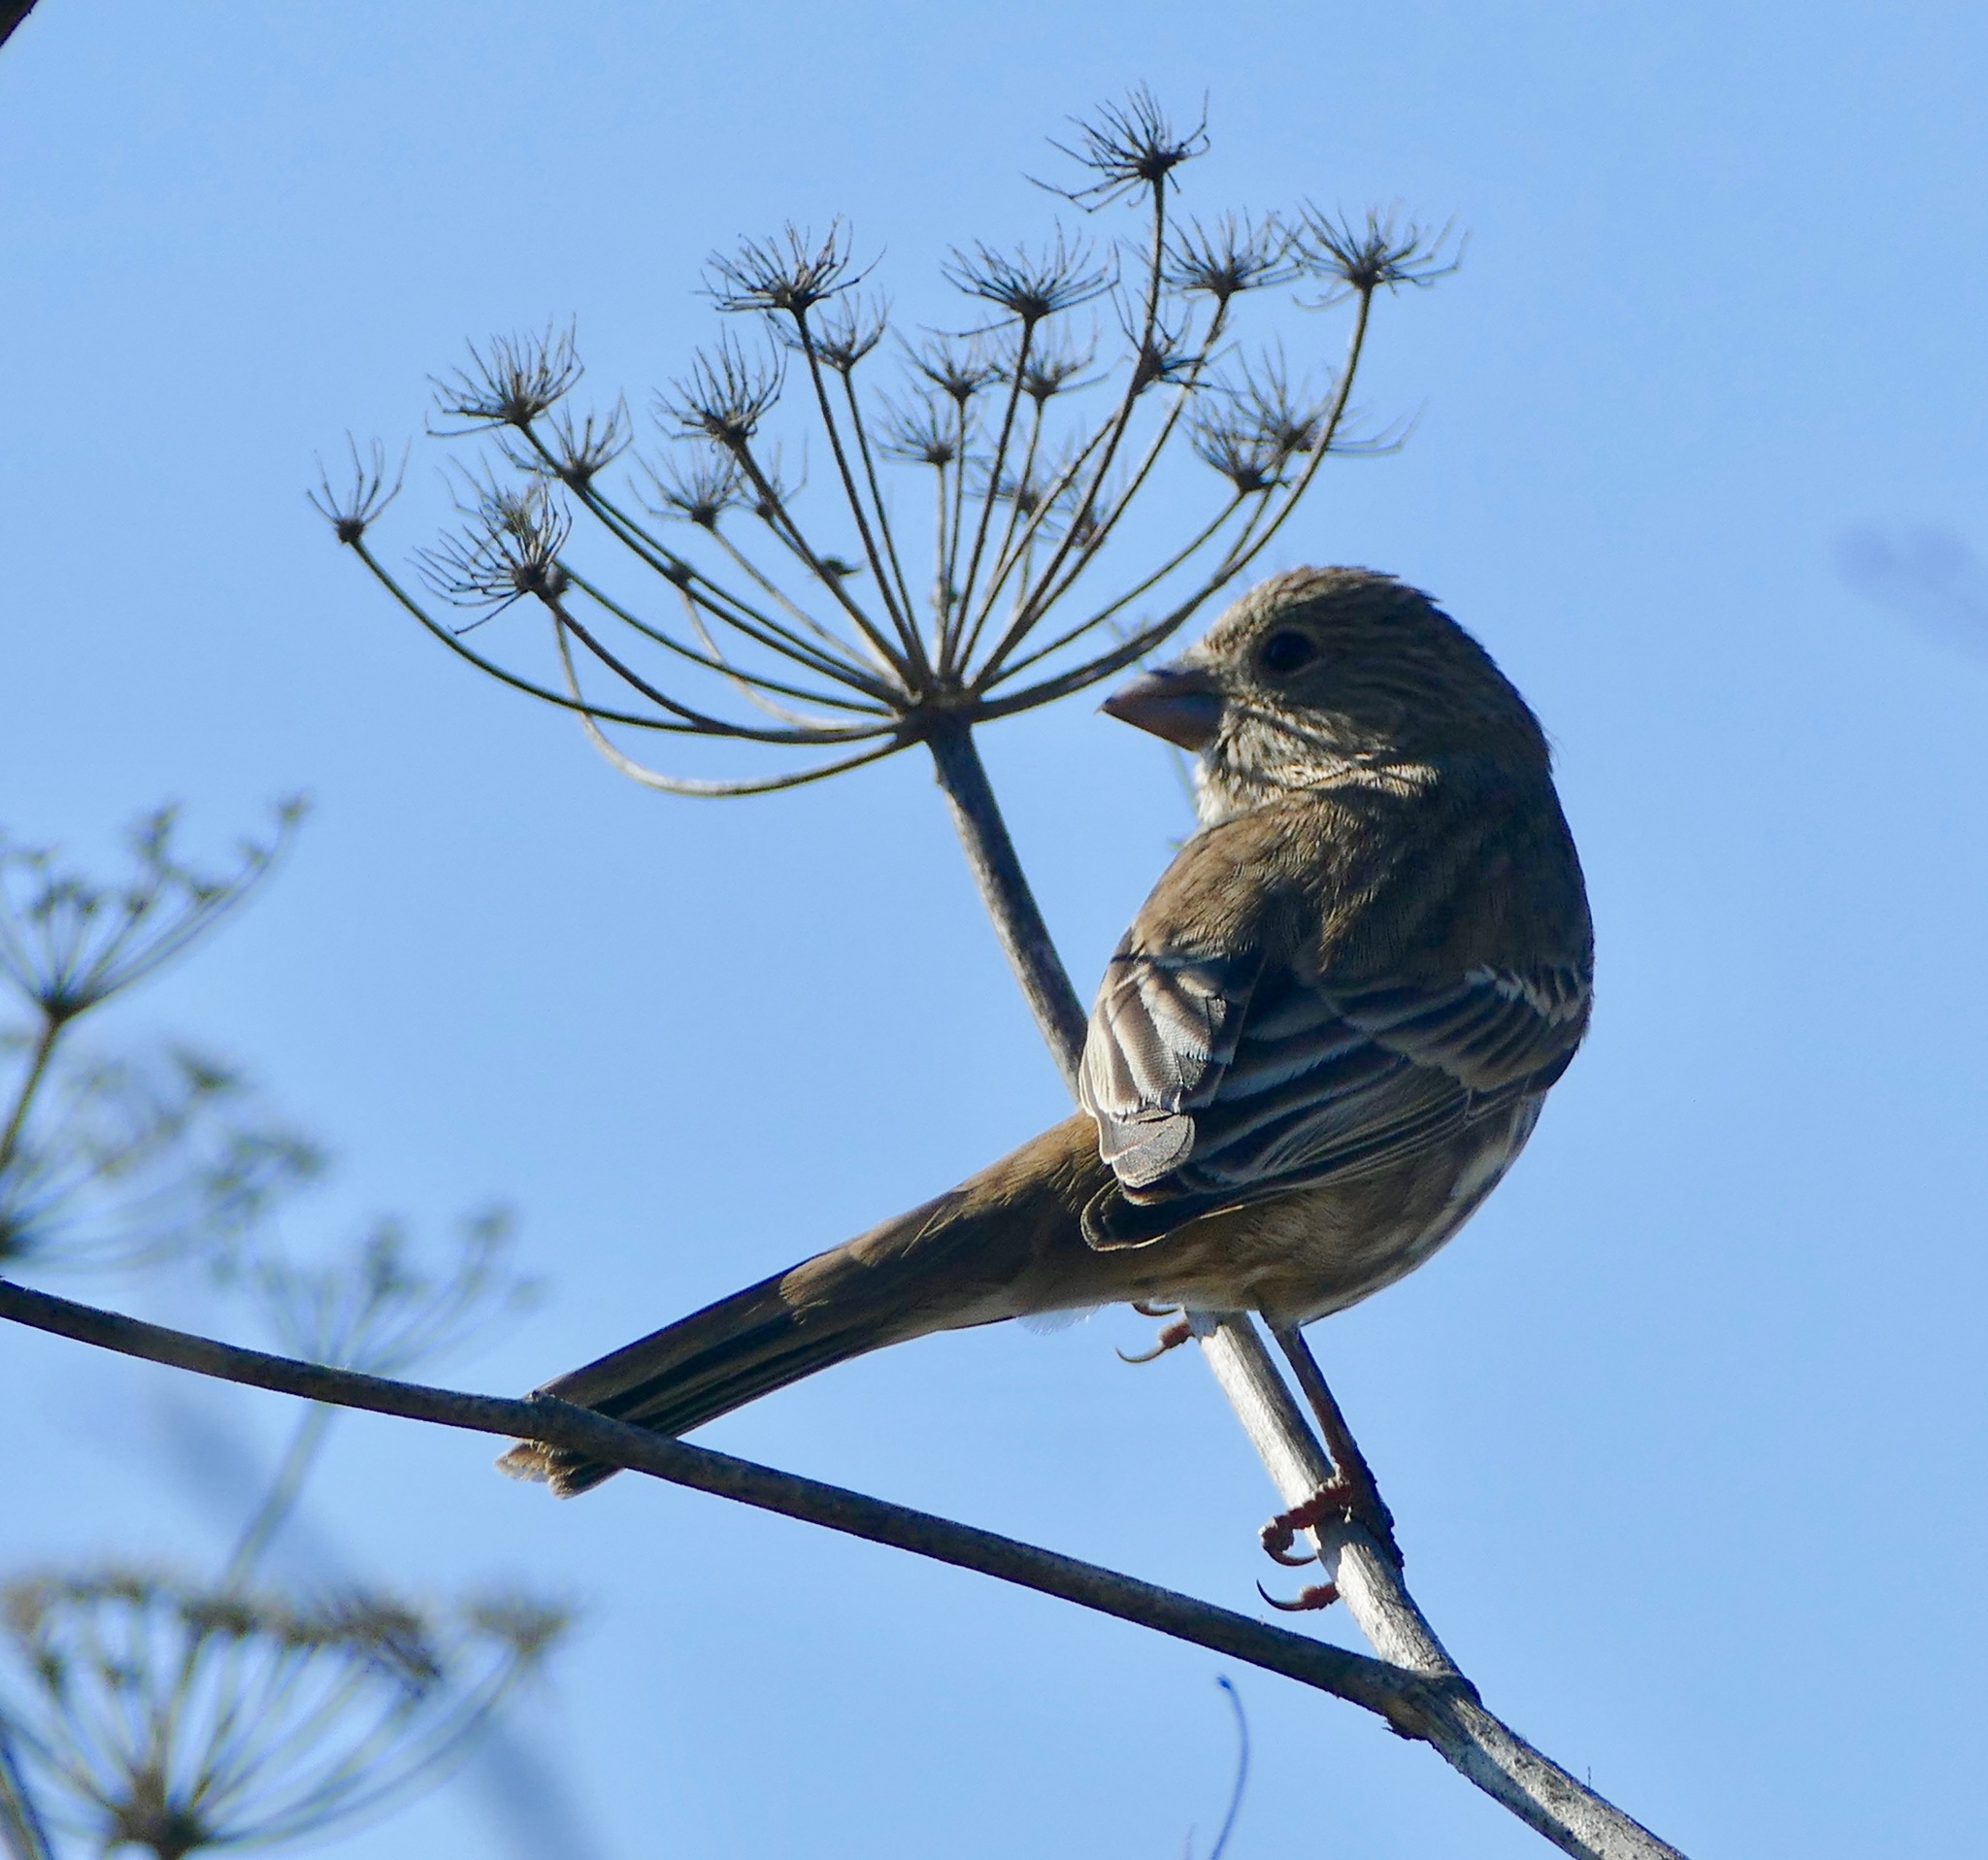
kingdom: Animalia
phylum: Chordata
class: Aves
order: Passeriformes
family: Fringillidae
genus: Haemorhous
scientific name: Haemorhous mexicanus
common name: House finch
